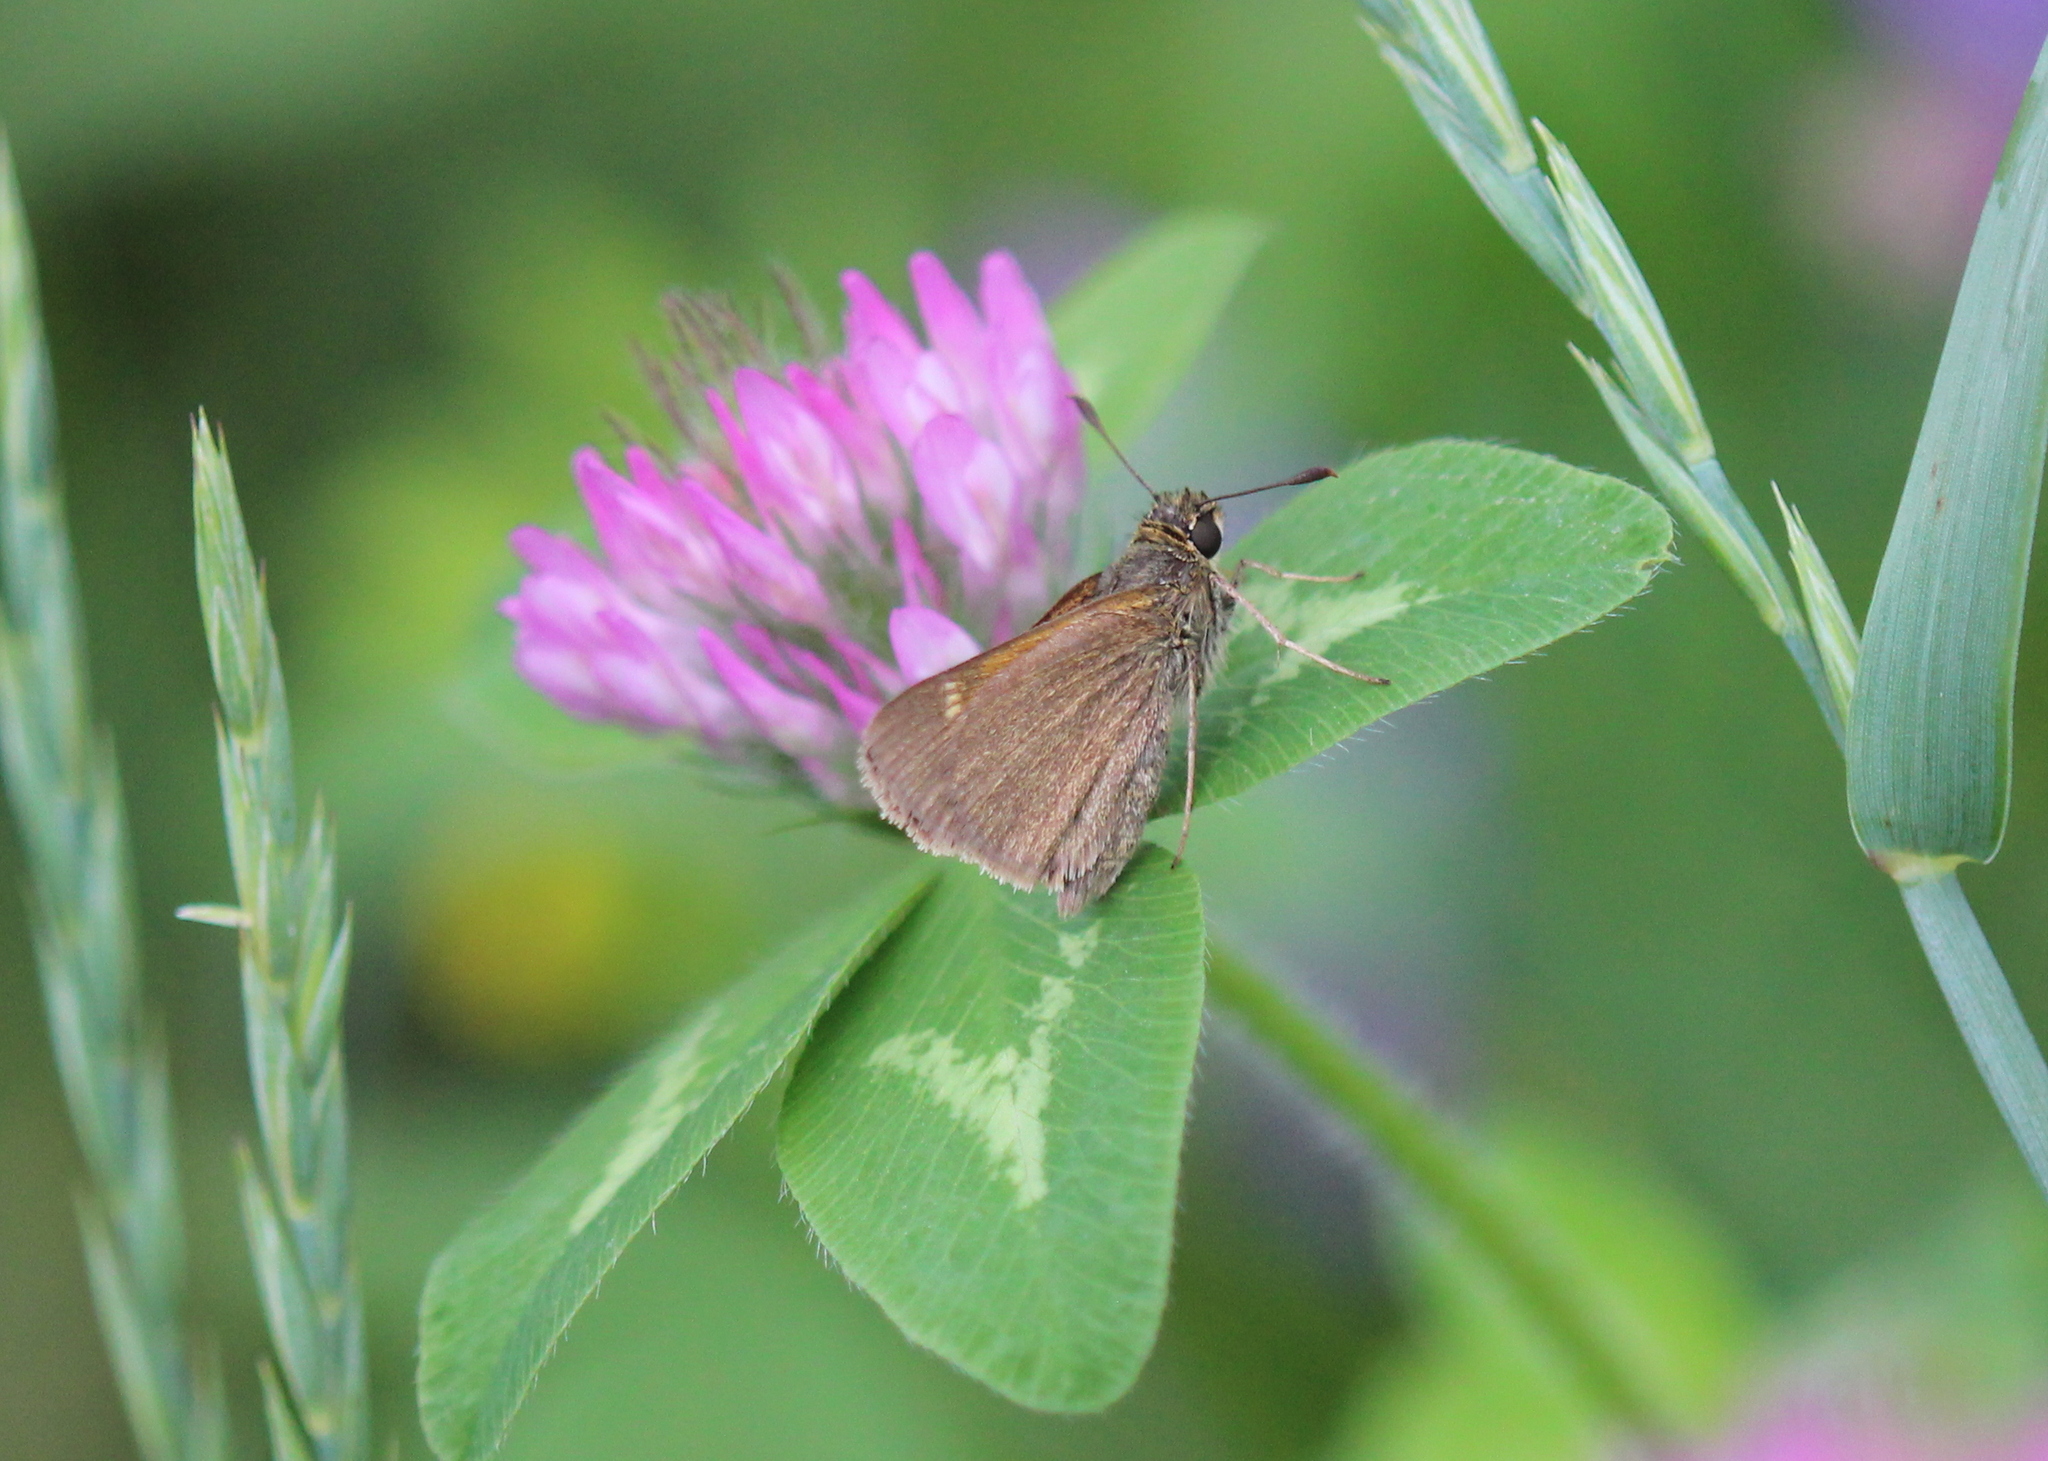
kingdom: Animalia
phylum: Arthropoda
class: Insecta
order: Lepidoptera
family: Hesperiidae
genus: Polites
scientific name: Polites themistocles
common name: Tawny-edged skipper
